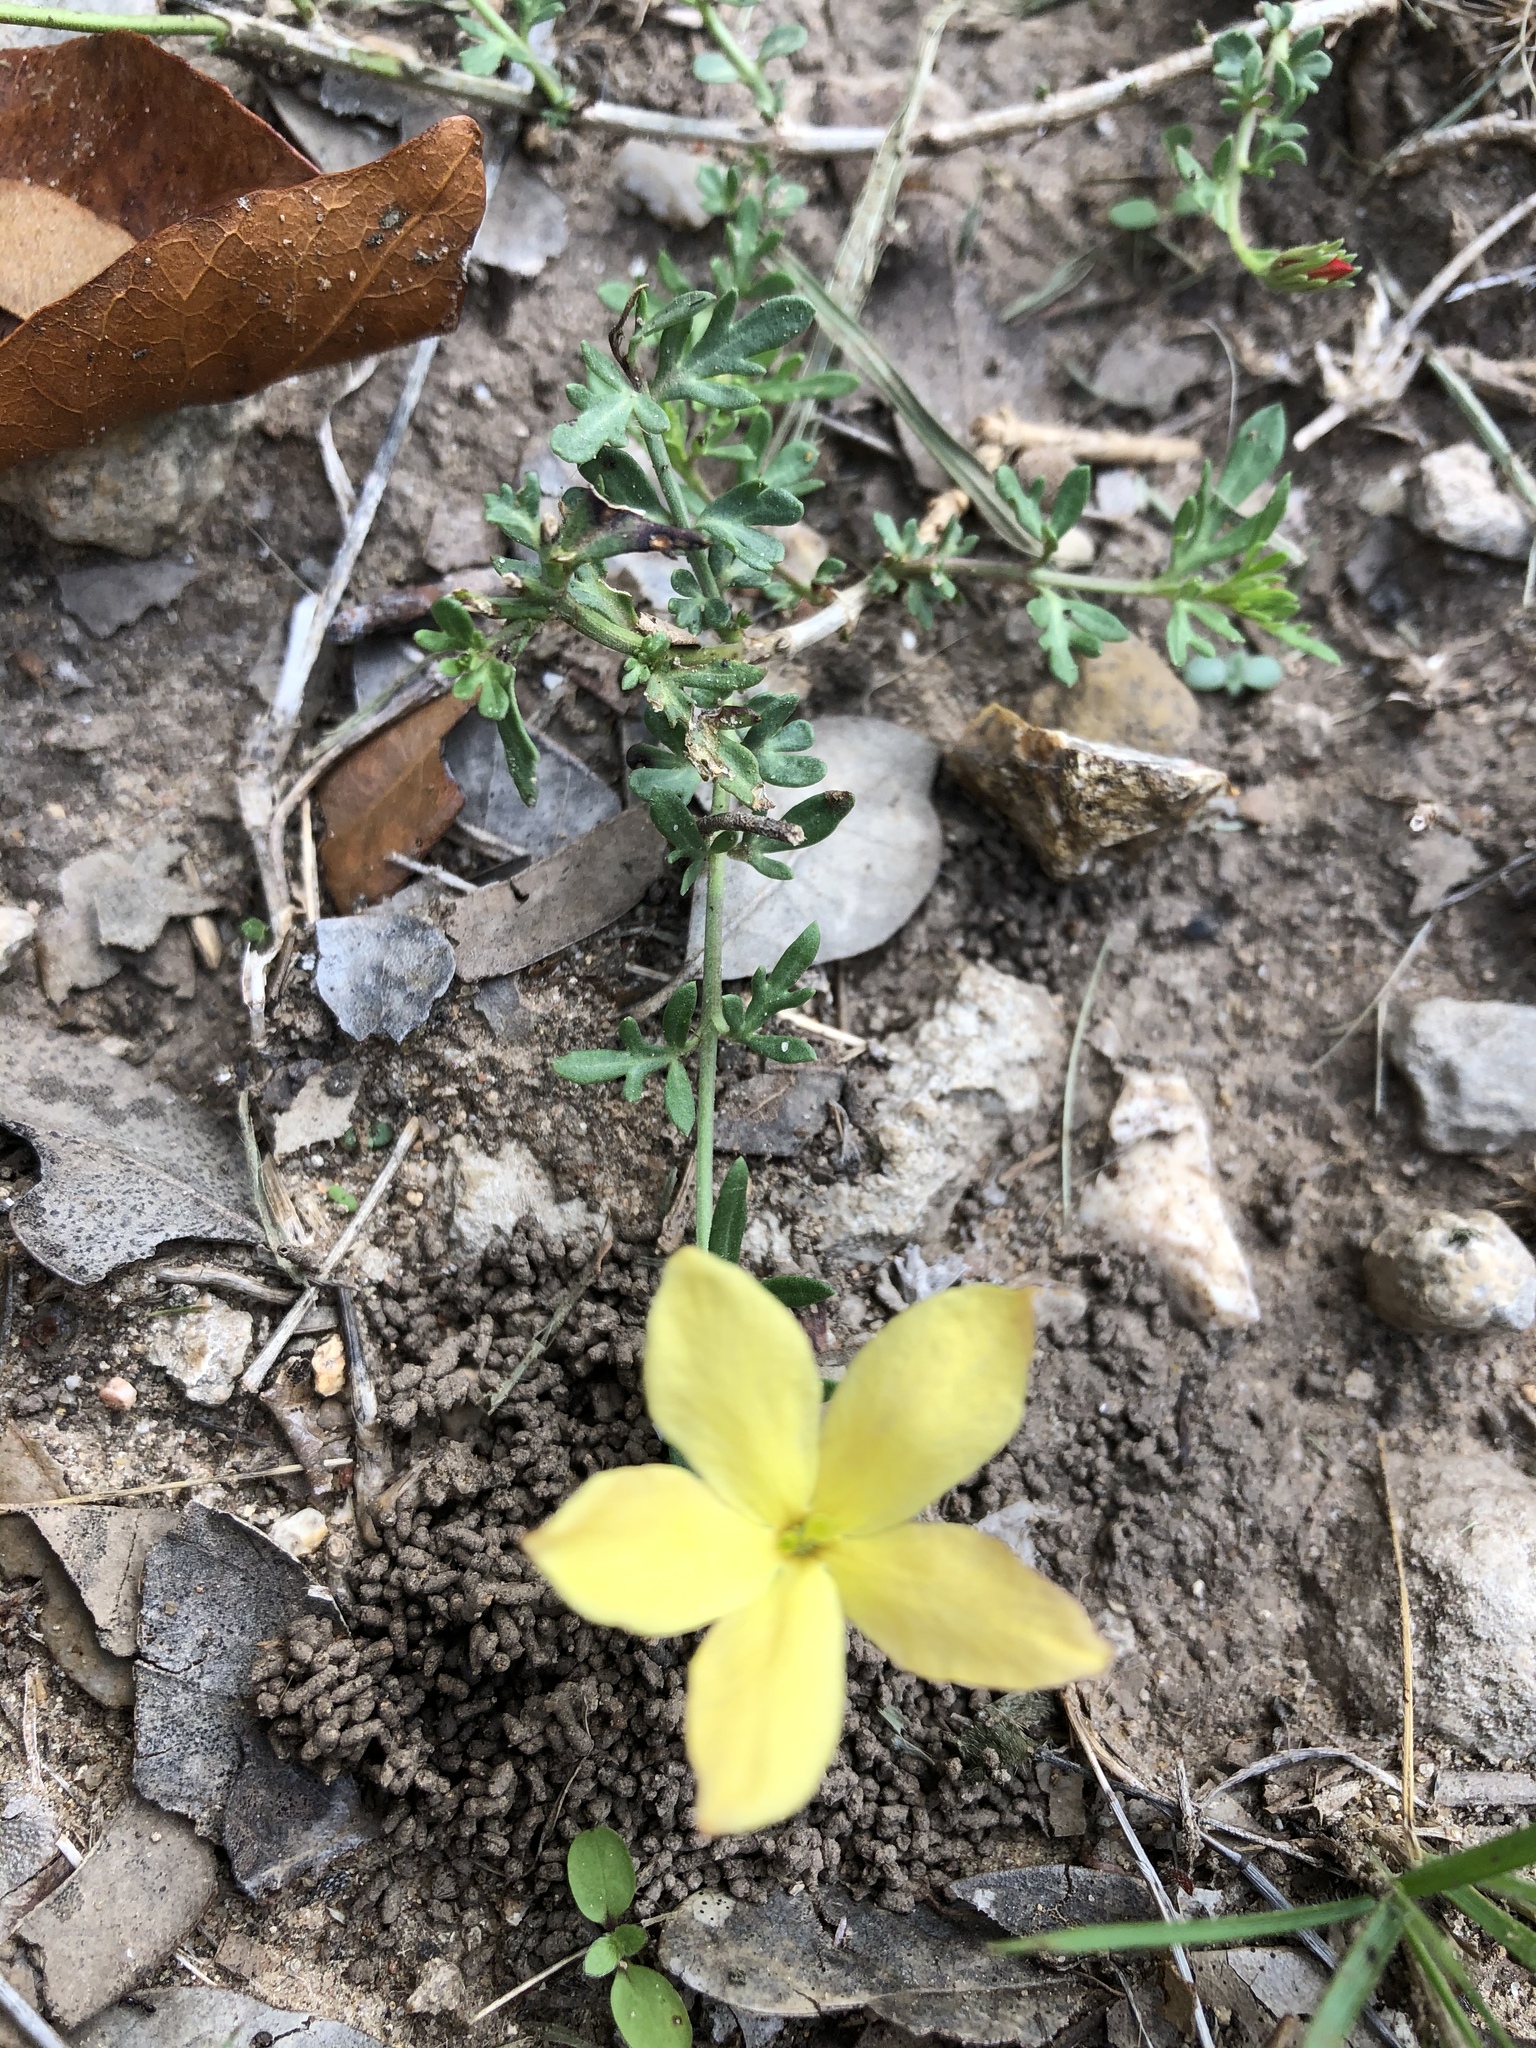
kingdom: Plantae
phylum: Tracheophyta
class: Magnoliopsida
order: Lamiales
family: Oleaceae
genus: Menodora
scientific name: Menodora heterophylla
